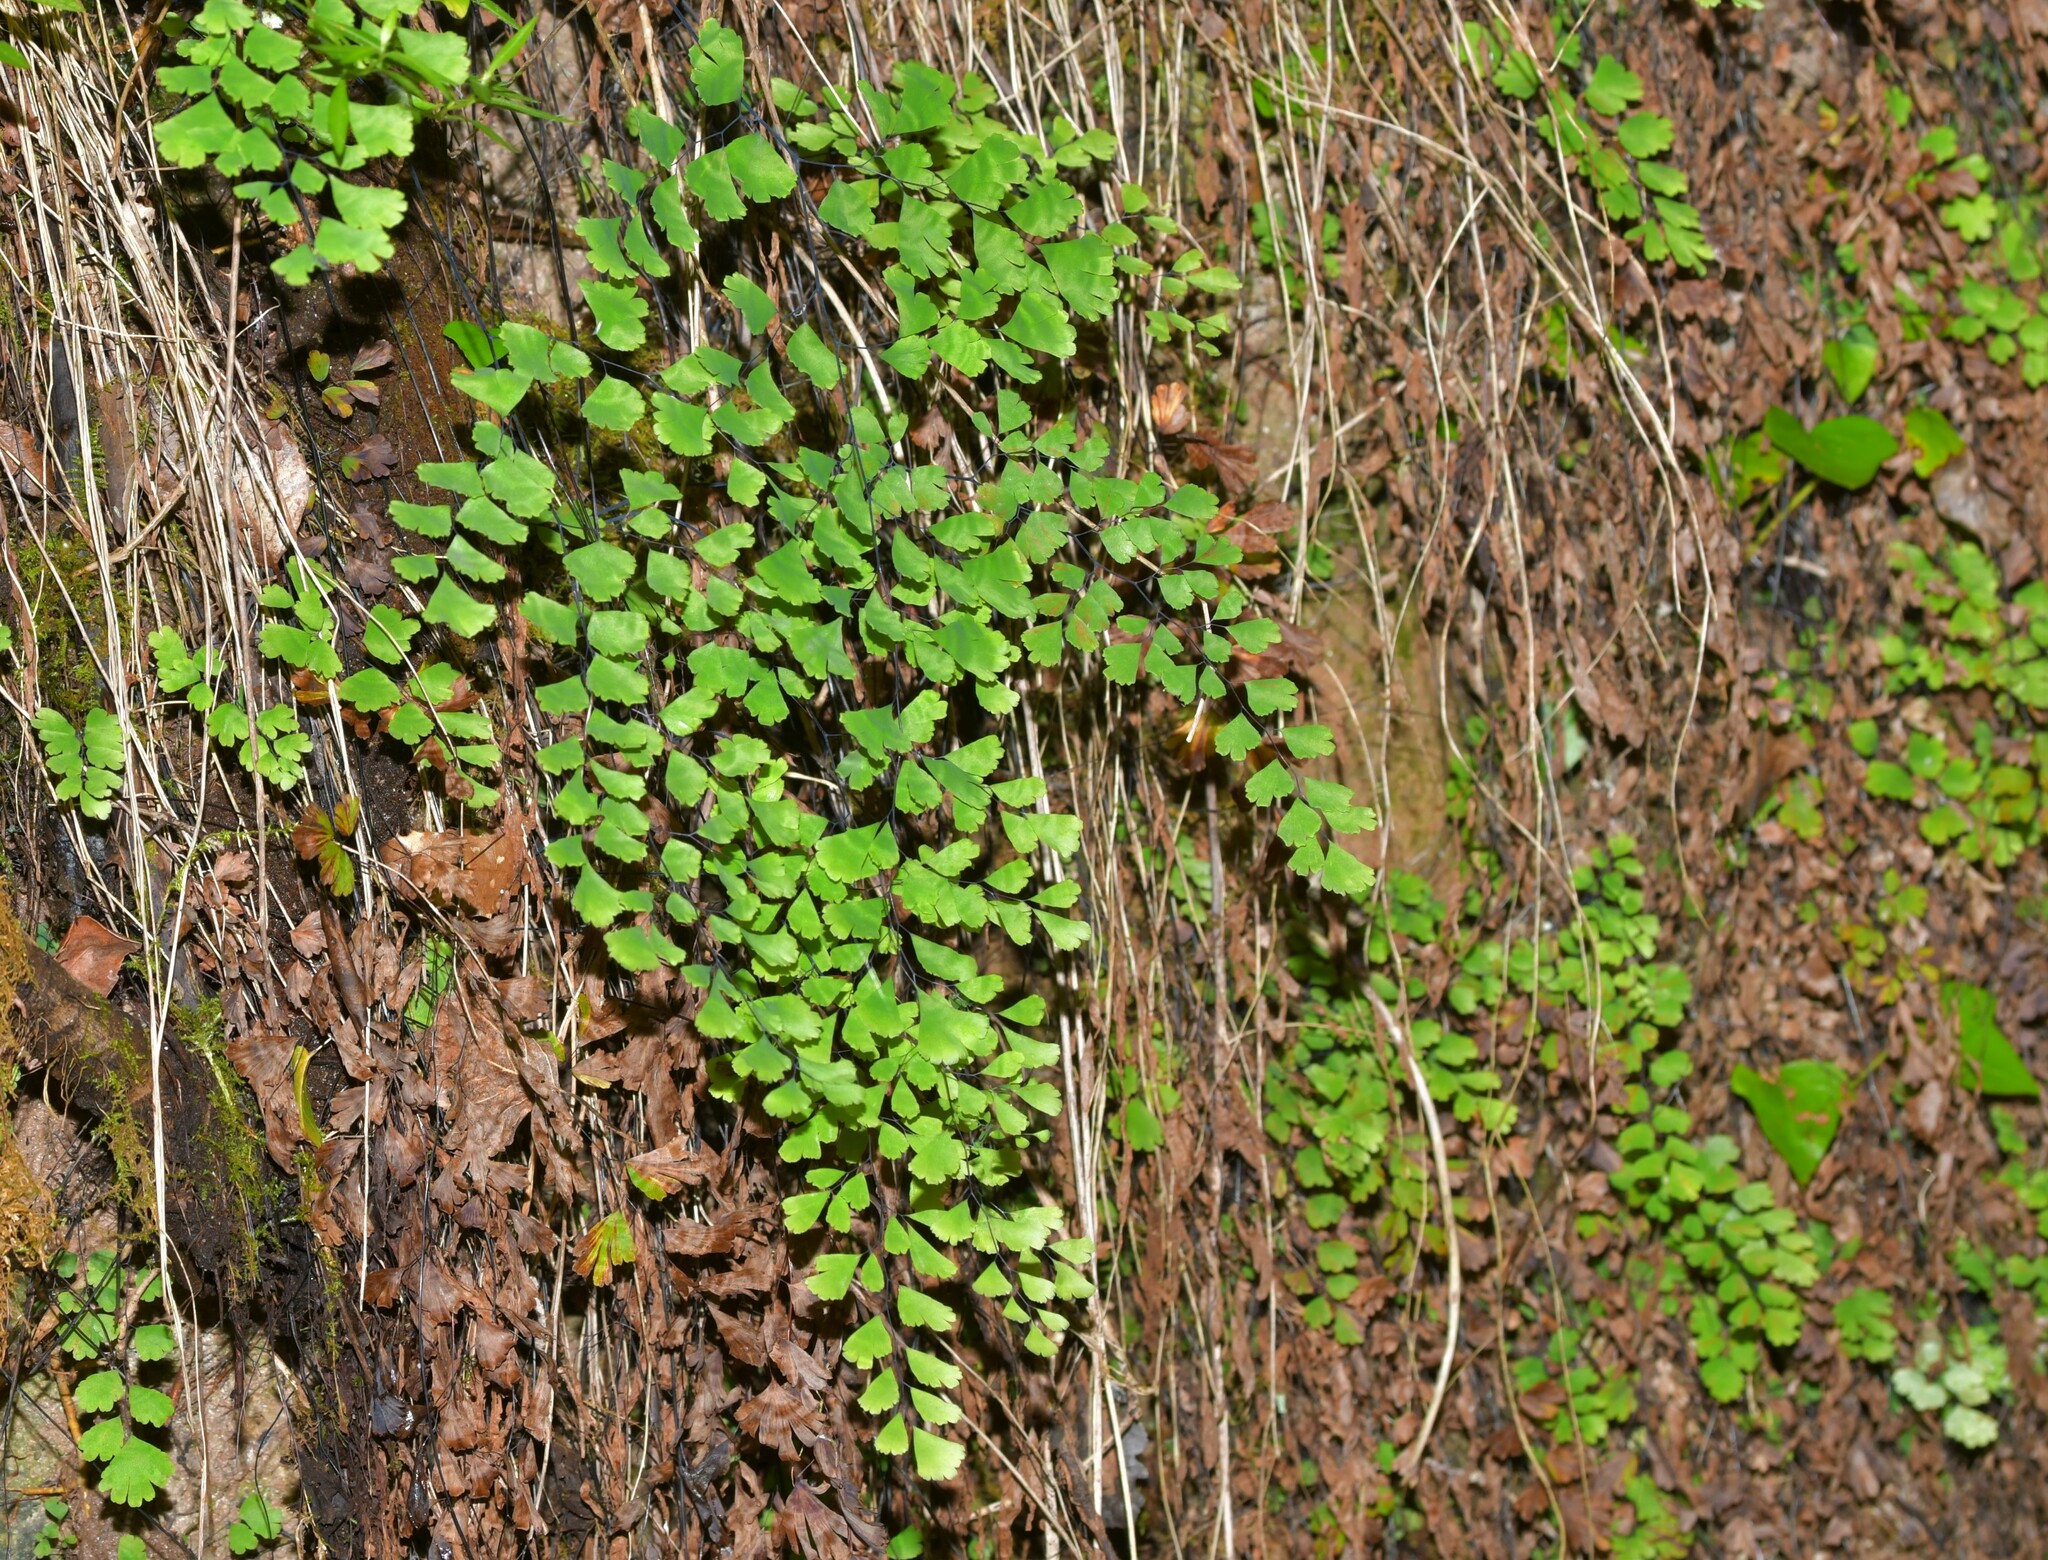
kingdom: Plantae
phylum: Tracheophyta
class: Polypodiopsida
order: Polypodiales
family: Pteridaceae
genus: Adiantum
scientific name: Adiantum capillus-veneris
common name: Maidenhair fern
